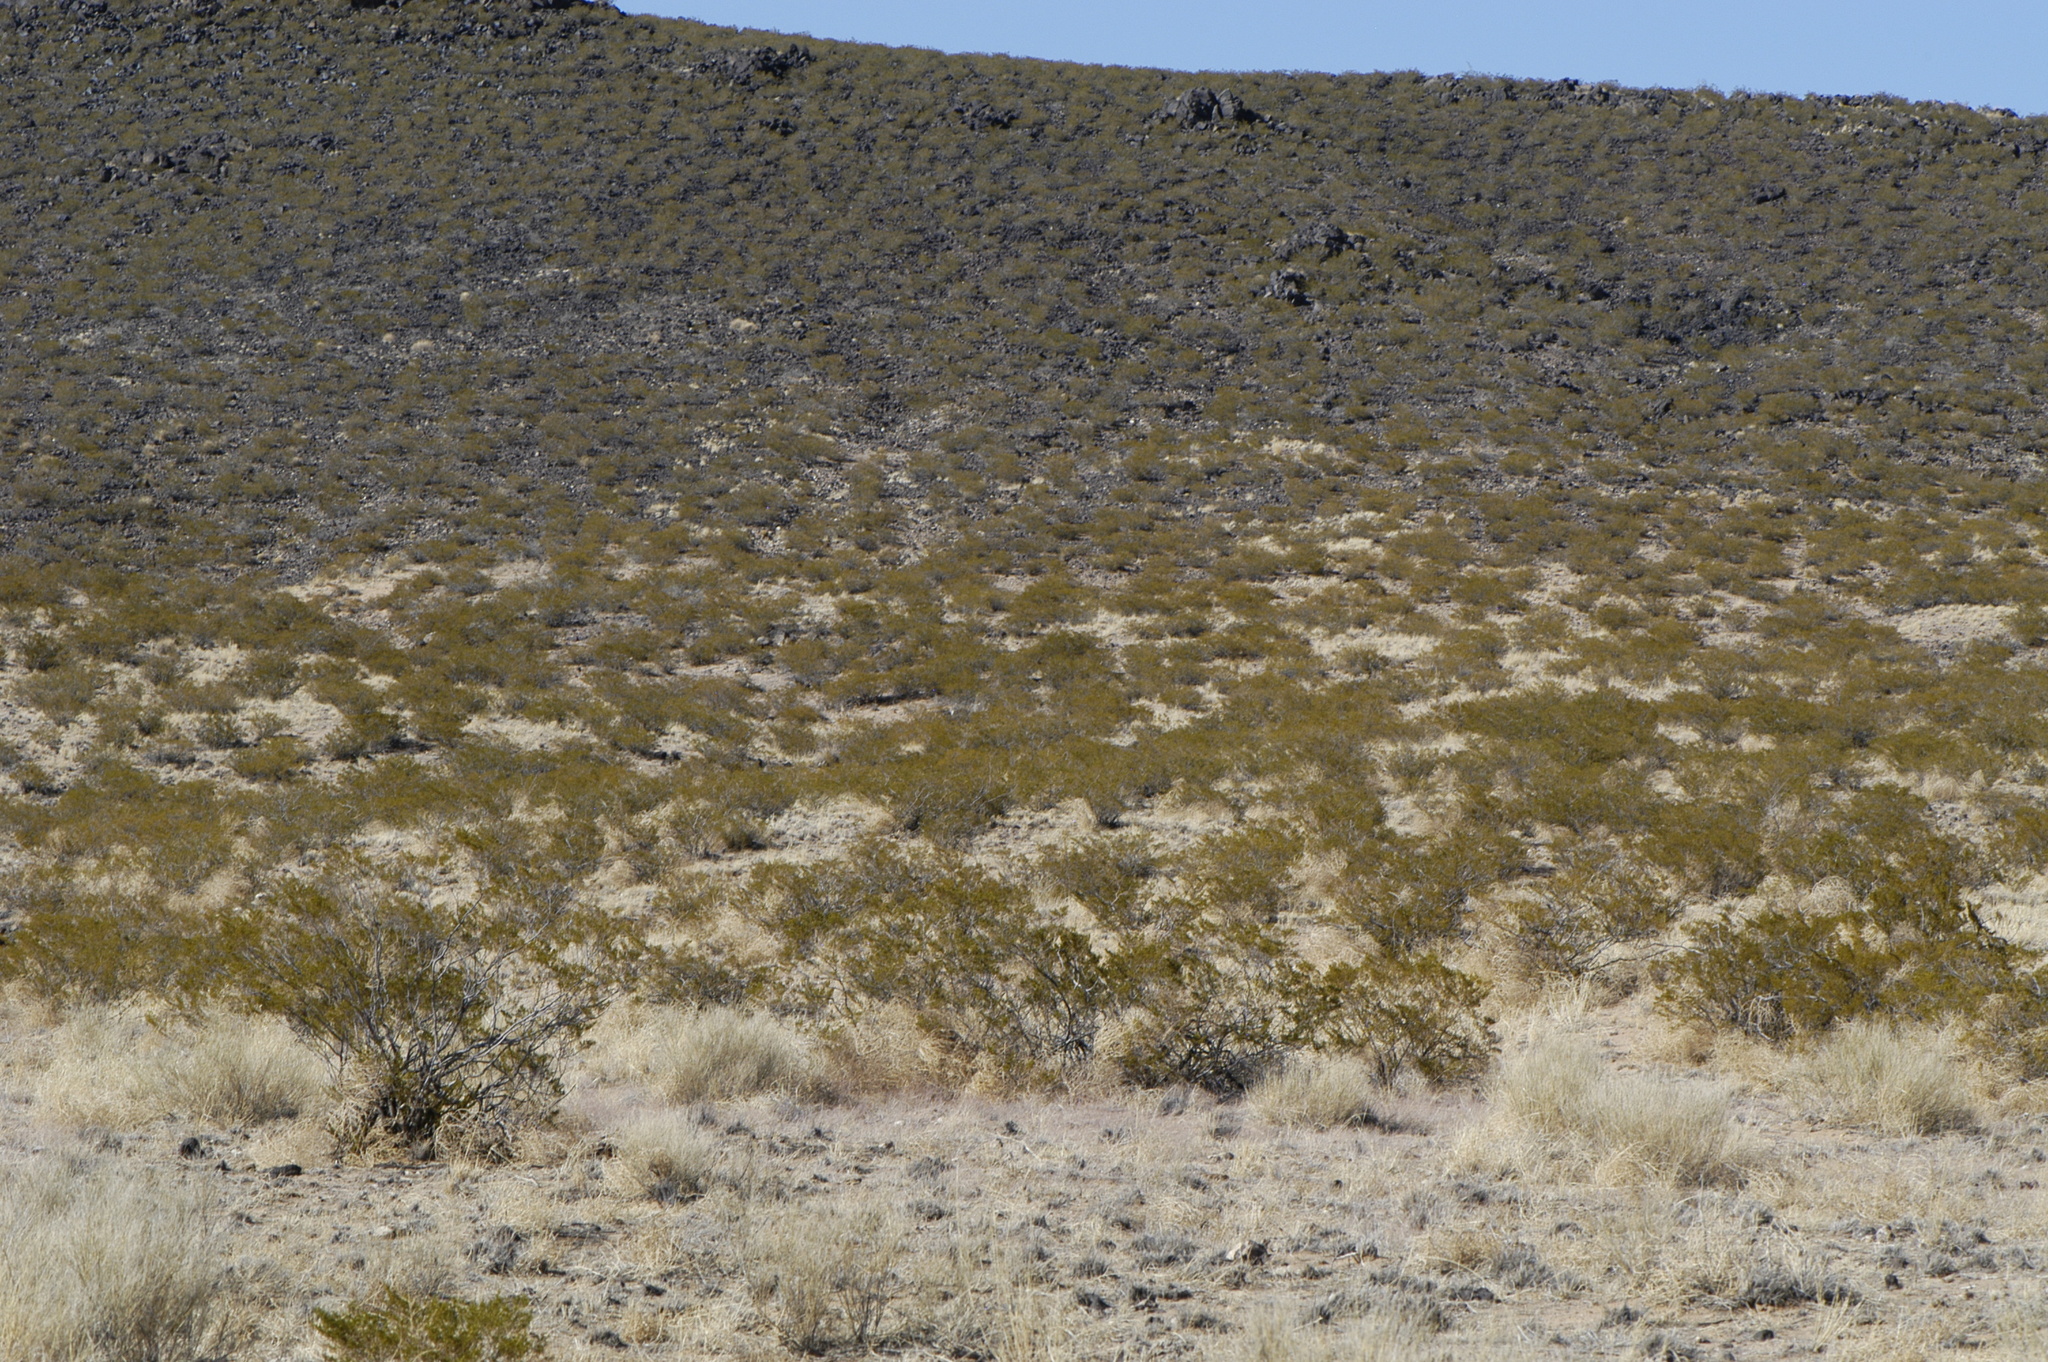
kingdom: Plantae
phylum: Tracheophyta
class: Magnoliopsida
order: Zygophyllales
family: Zygophyllaceae
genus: Larrea
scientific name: Larrea tridentata
